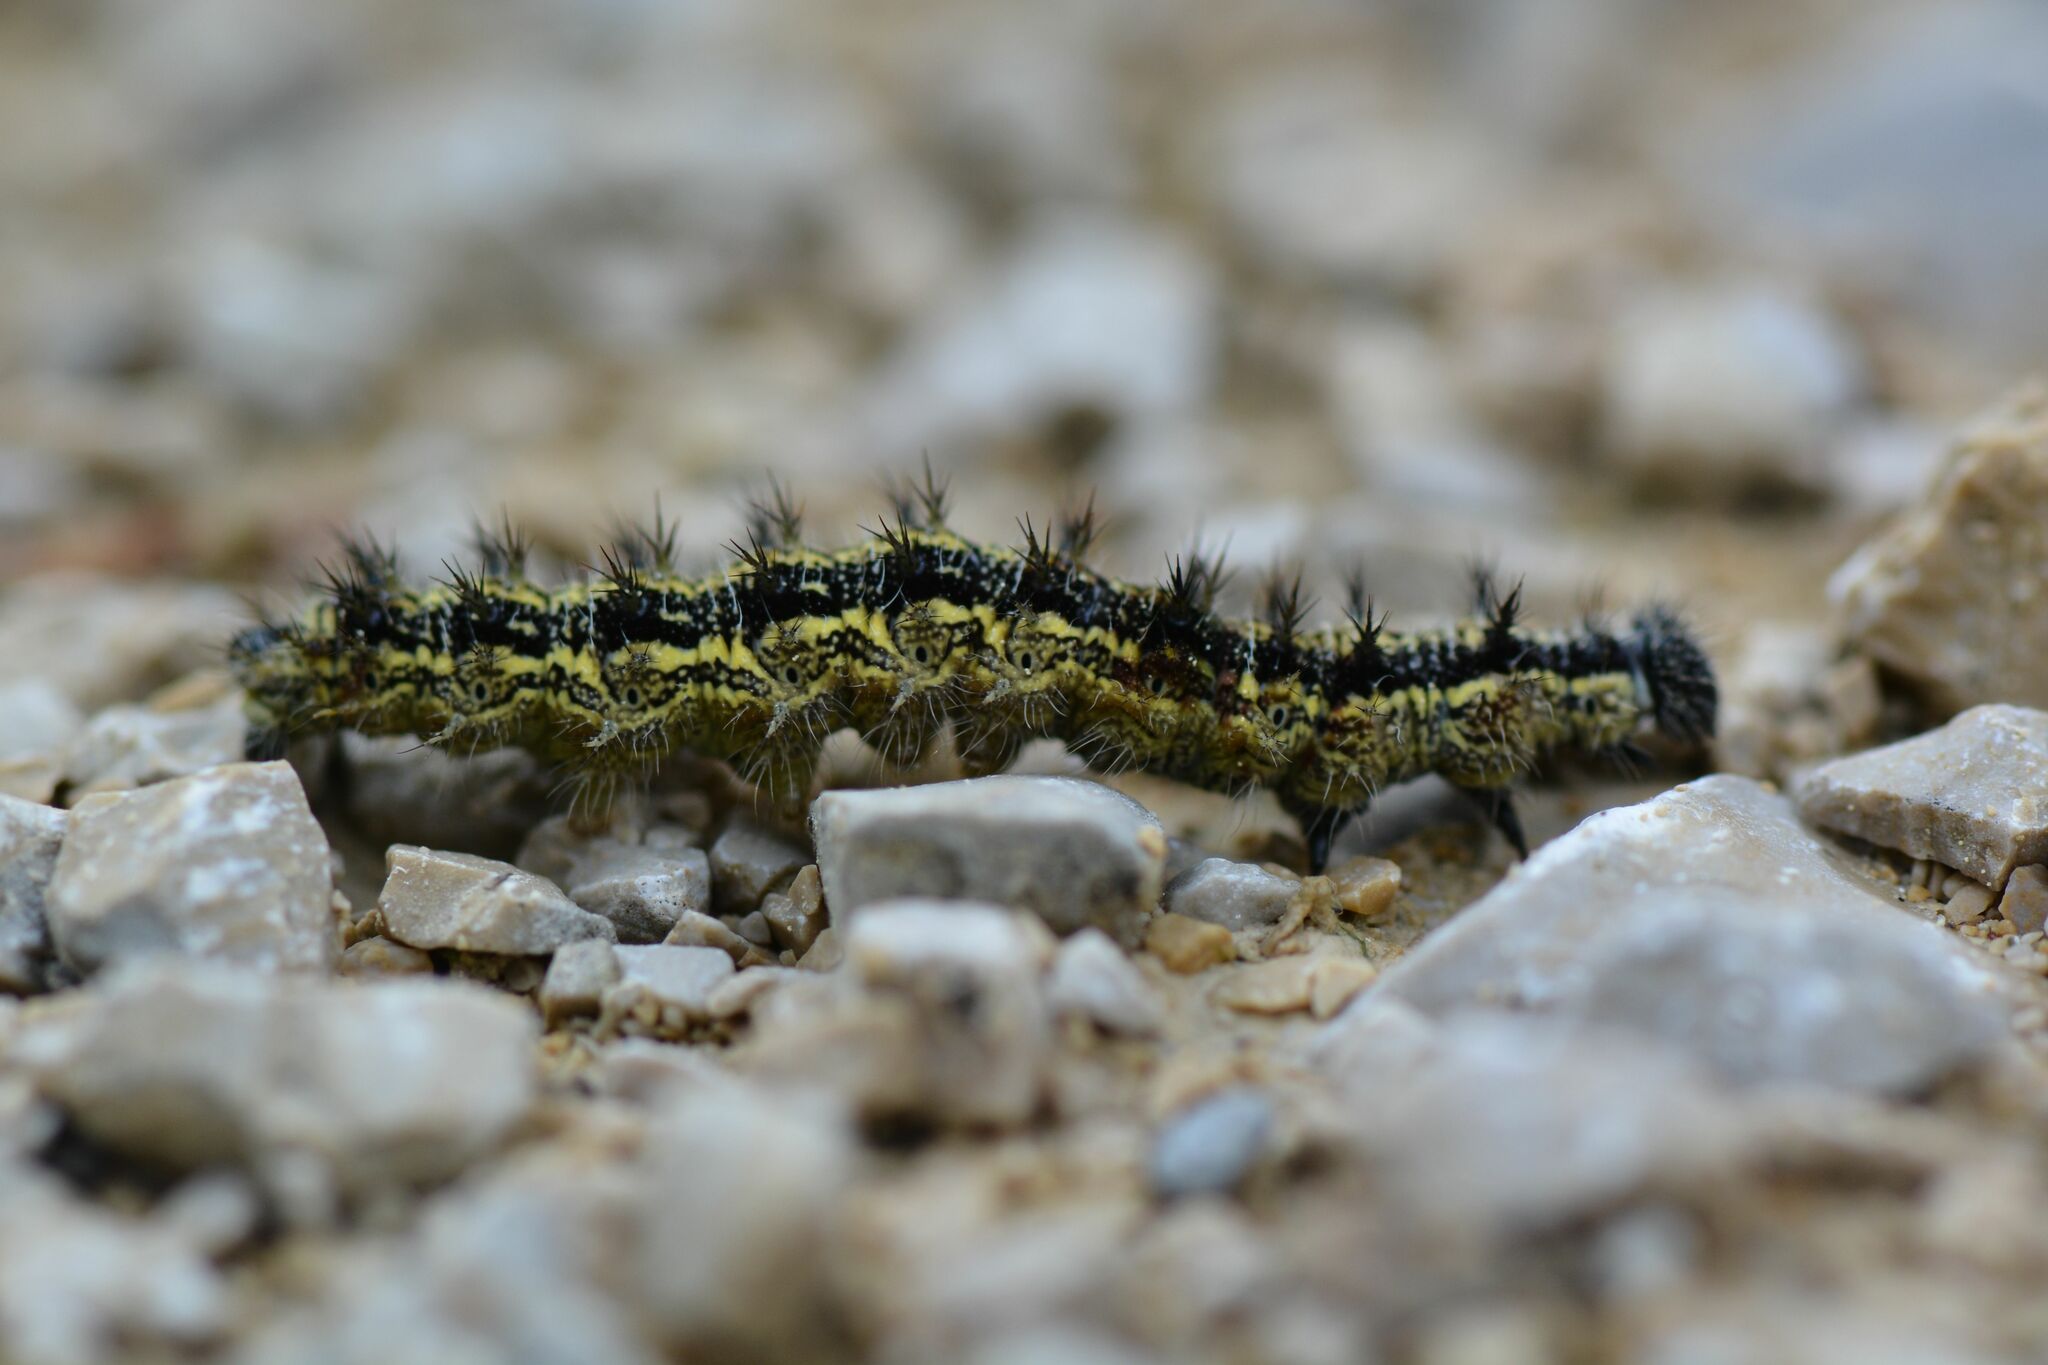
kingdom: Animalia
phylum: Arthropoda
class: Insecta
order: Lepidoptera
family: Nymphalidae
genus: Aglais
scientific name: Aglais urticae
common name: Small tortoiseshell
